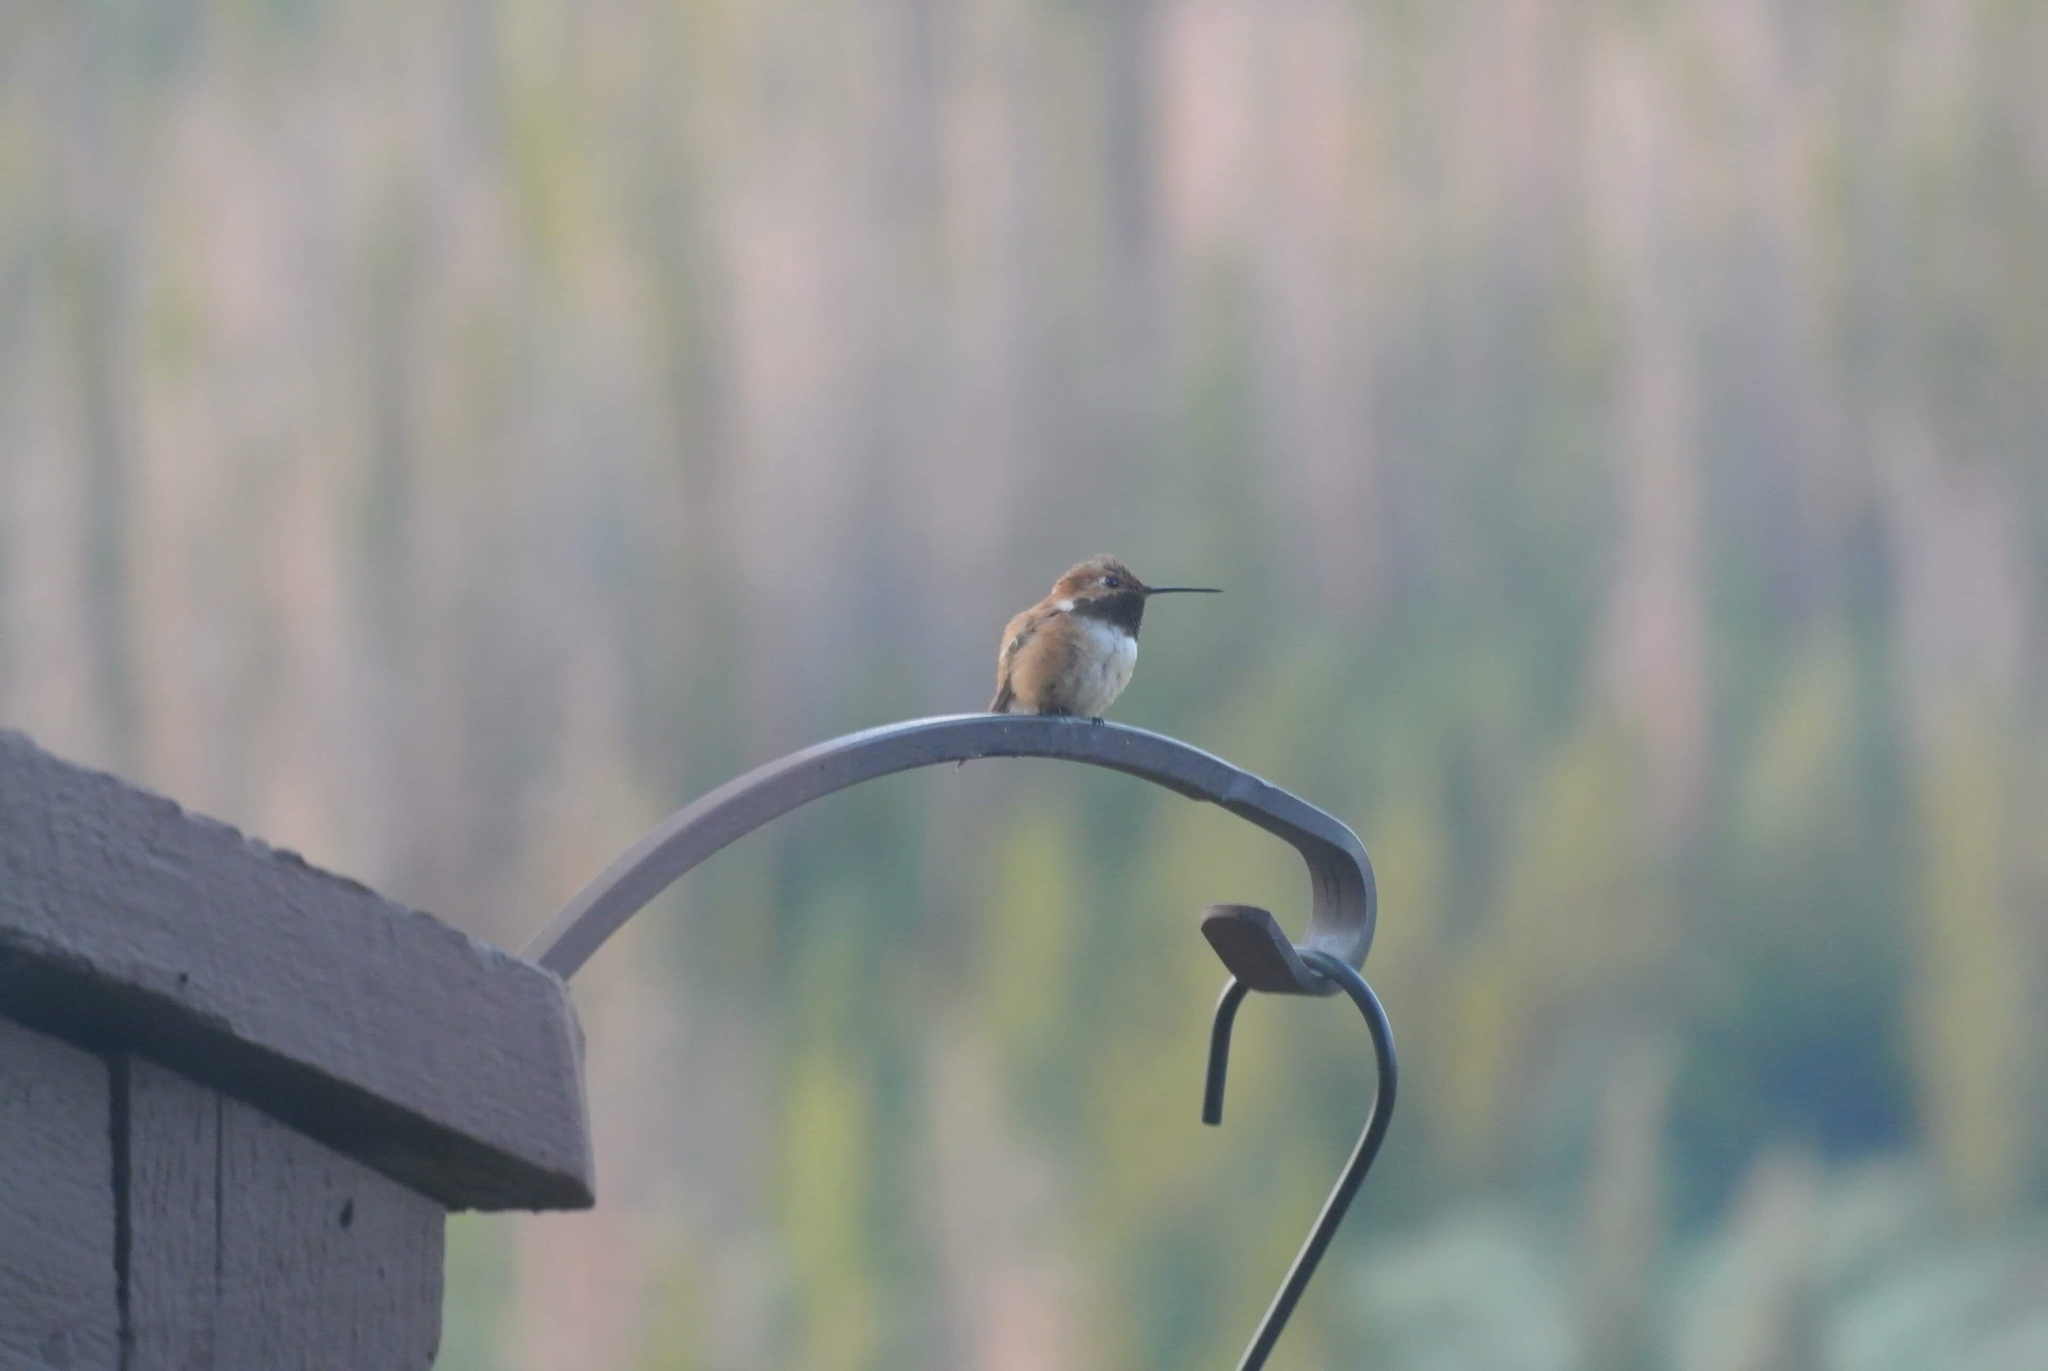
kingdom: Animalia
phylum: Chordata
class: Aves
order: Apodiformes
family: Trochilidae
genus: Selasphorus
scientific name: Selasphorus rufus
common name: Rufous hummingbird
